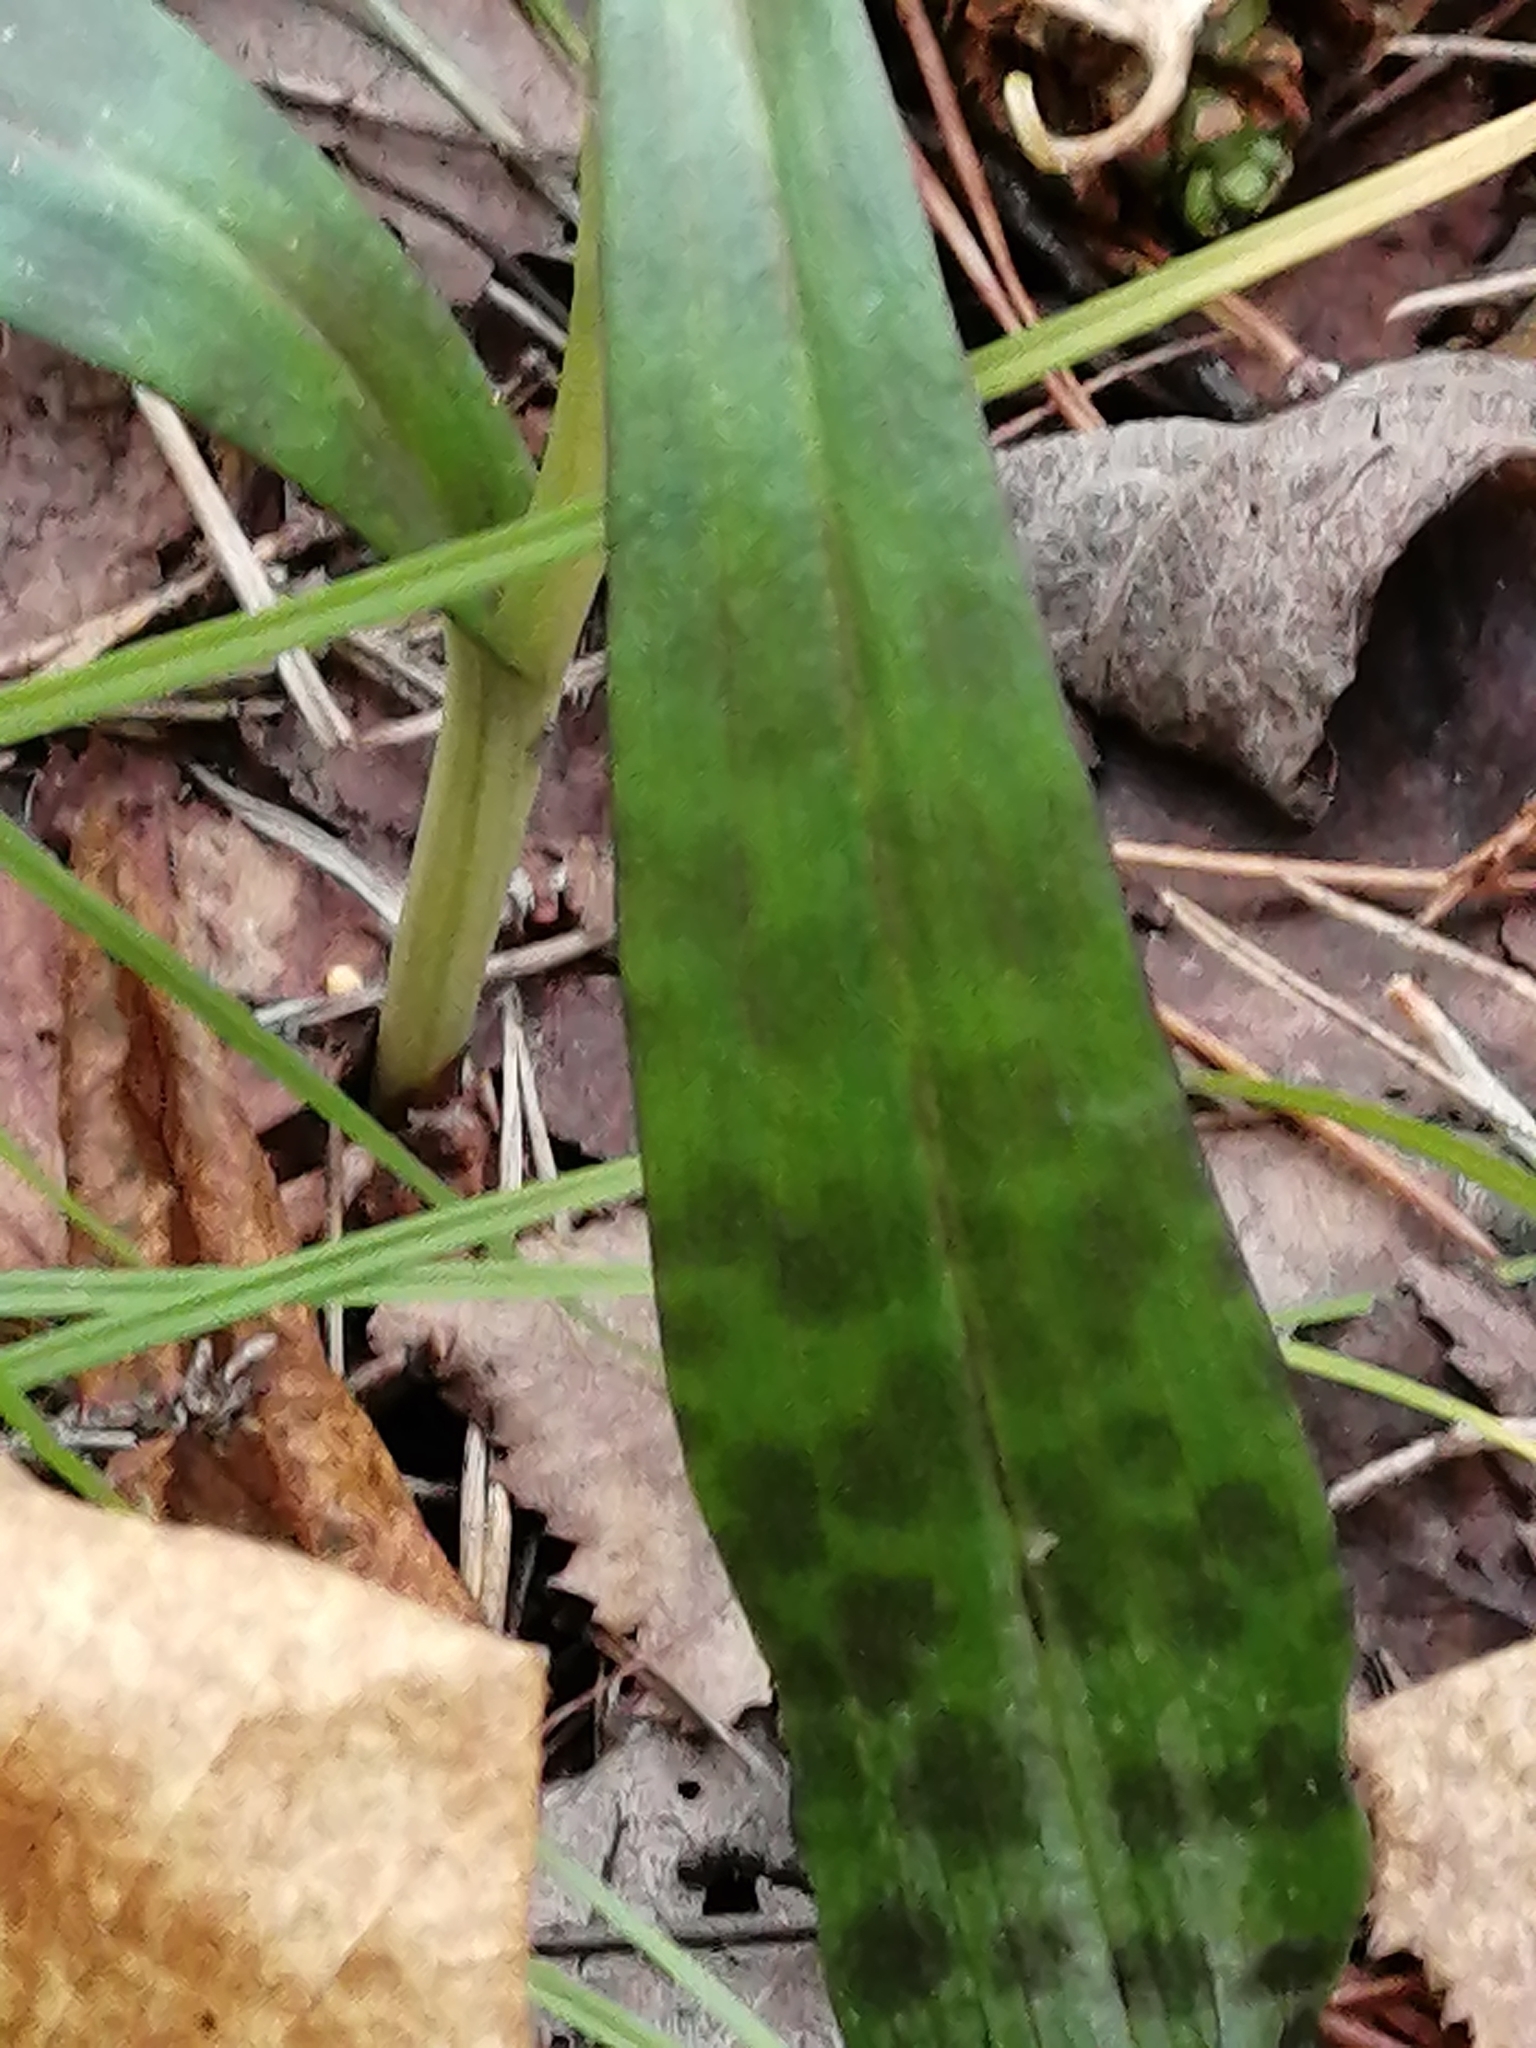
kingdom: Plantae
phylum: Tracheophyta
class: Liliopsida
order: Asparagales
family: Orchidaceae
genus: Dactylorhiza
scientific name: Dactylorhiza maculata
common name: Heath spotted-orchid
